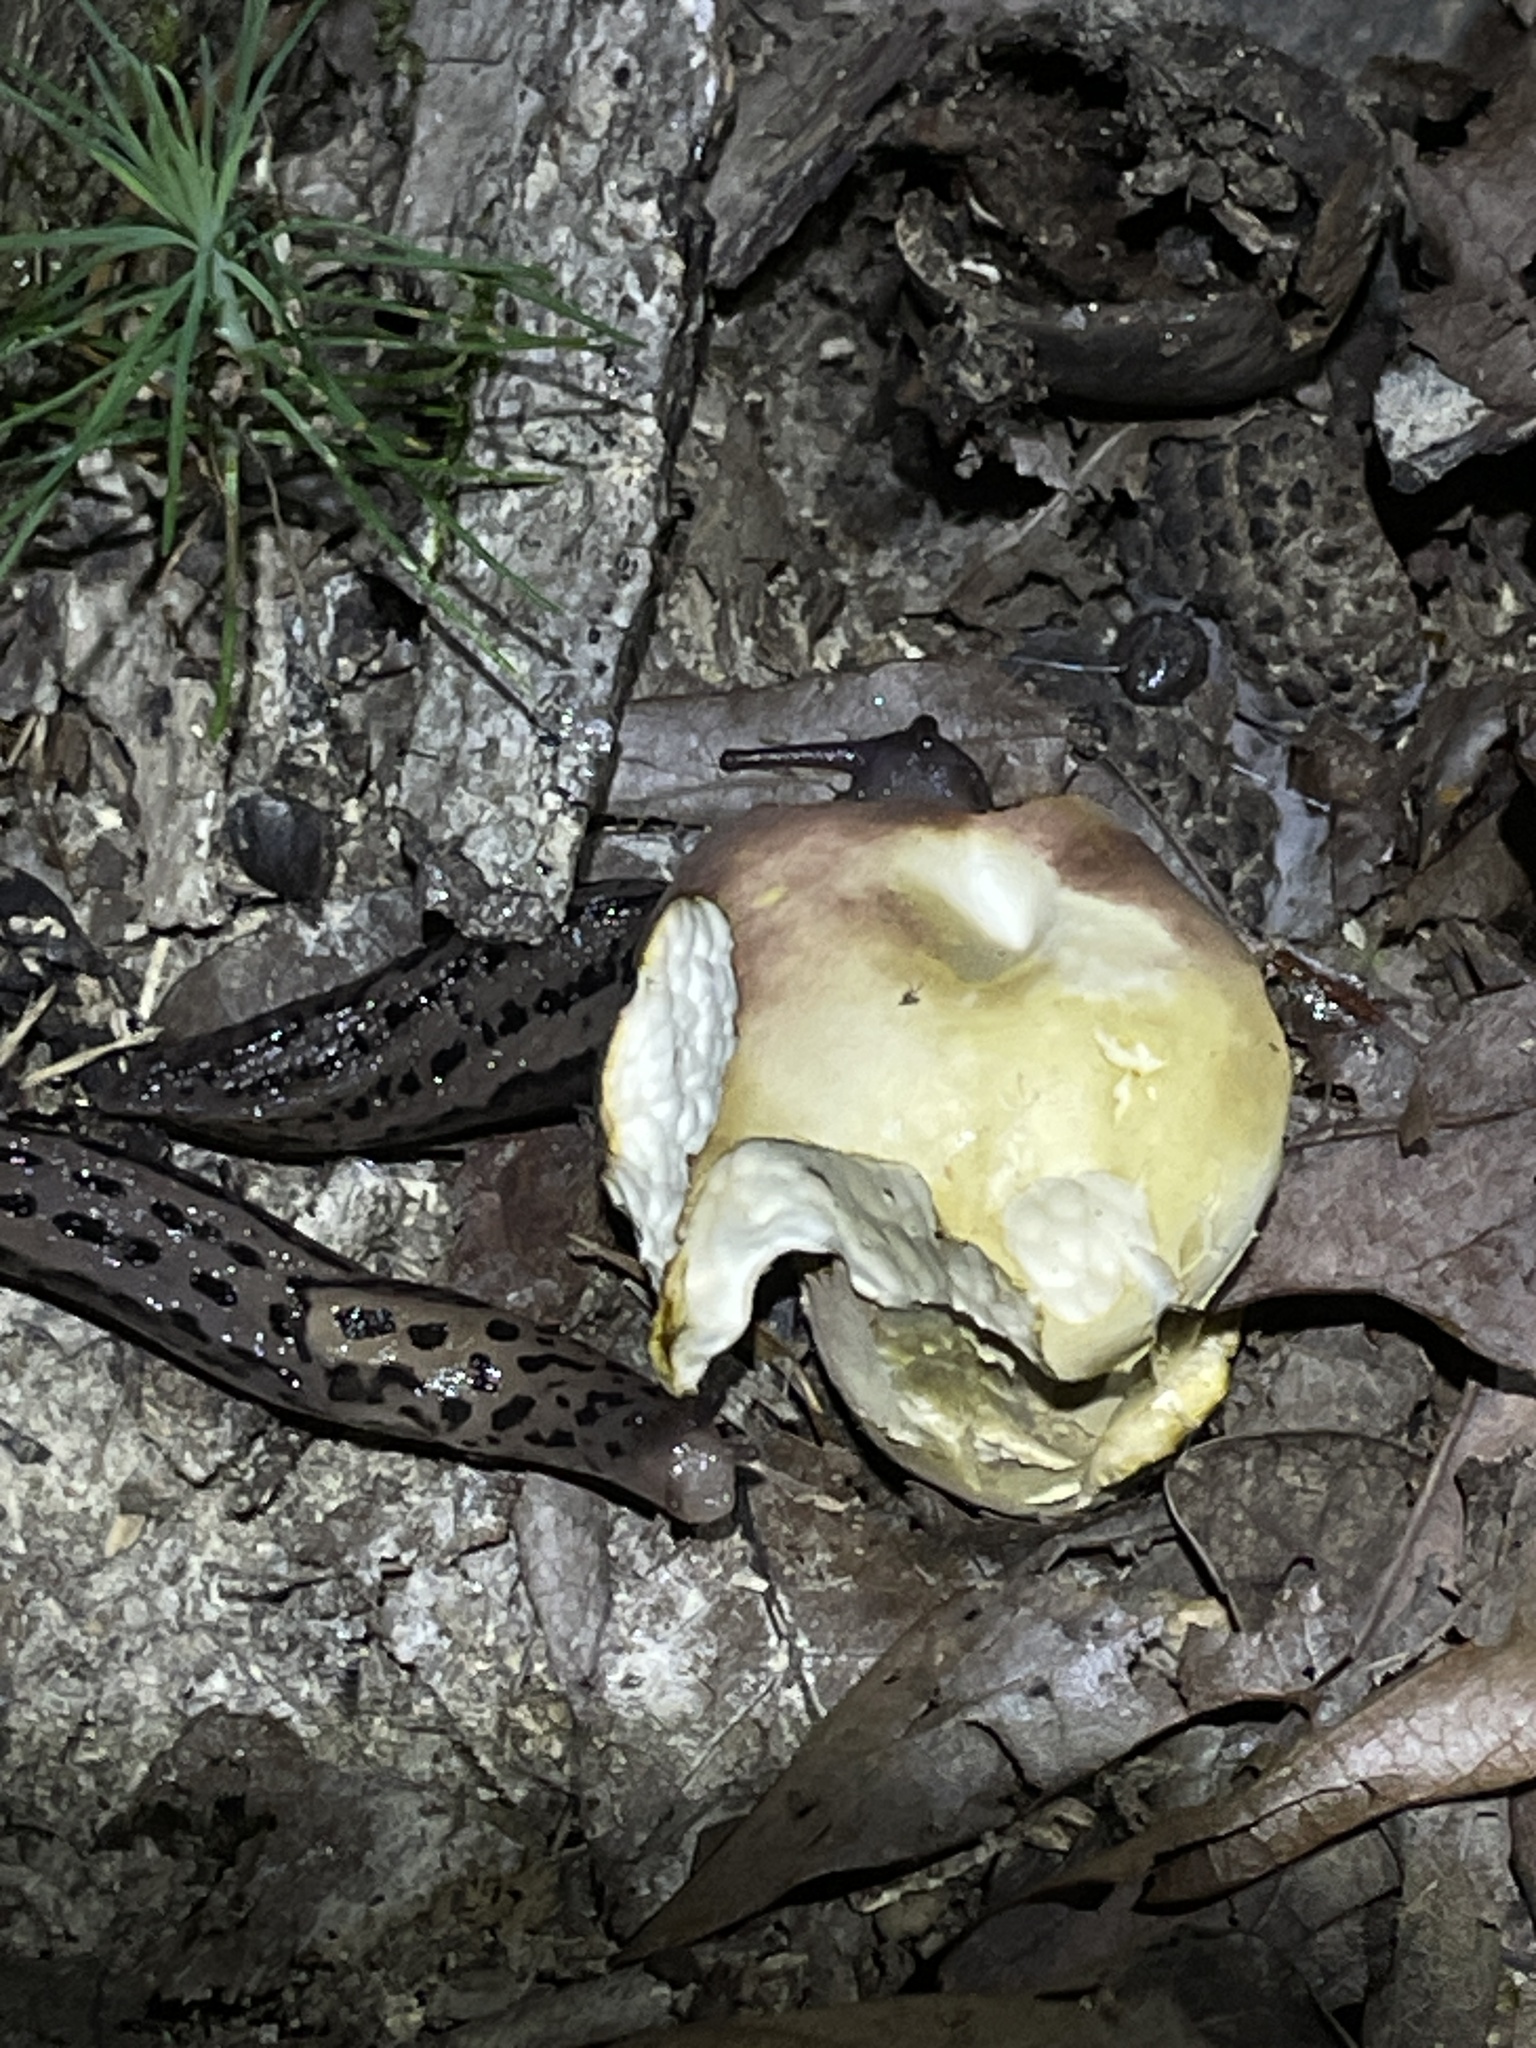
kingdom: Animalia
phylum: Mollusca
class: Gastropoda
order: Stylommatophora
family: Limacidae
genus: Limax
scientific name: Limax maximus
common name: Great grey slug
